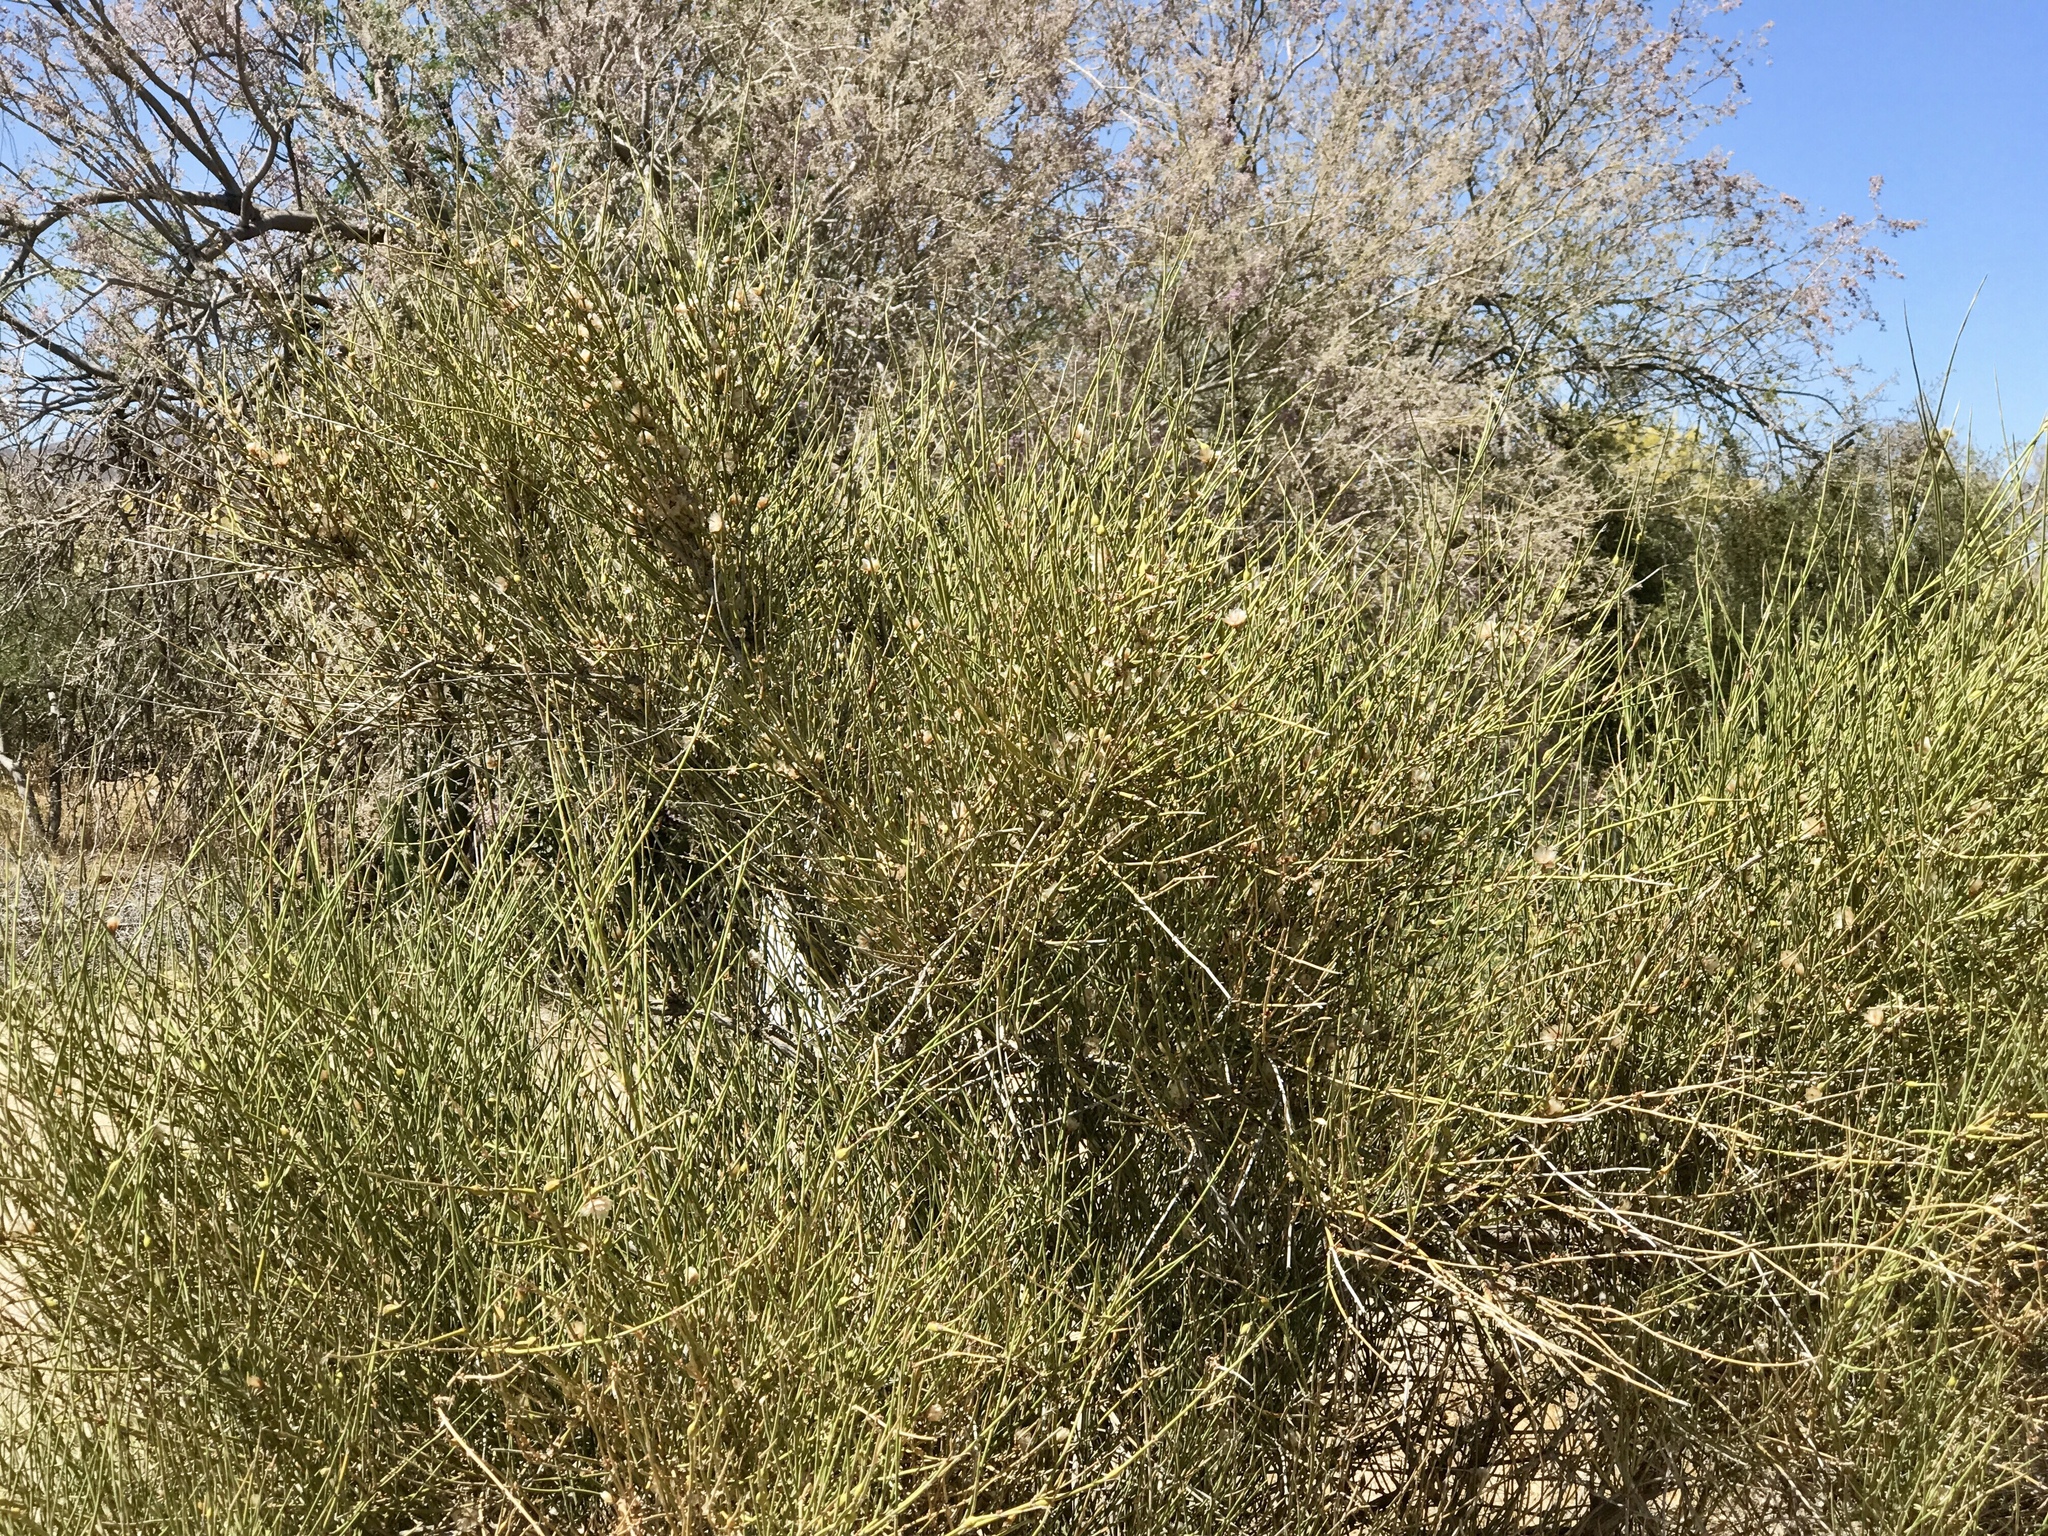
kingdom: Plantae
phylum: Tracheophyta
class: Gnetopsida
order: Ephedrales
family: Ephedraceae
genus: Ephedra
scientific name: Ephedra trifurca
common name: Mexican-tea
